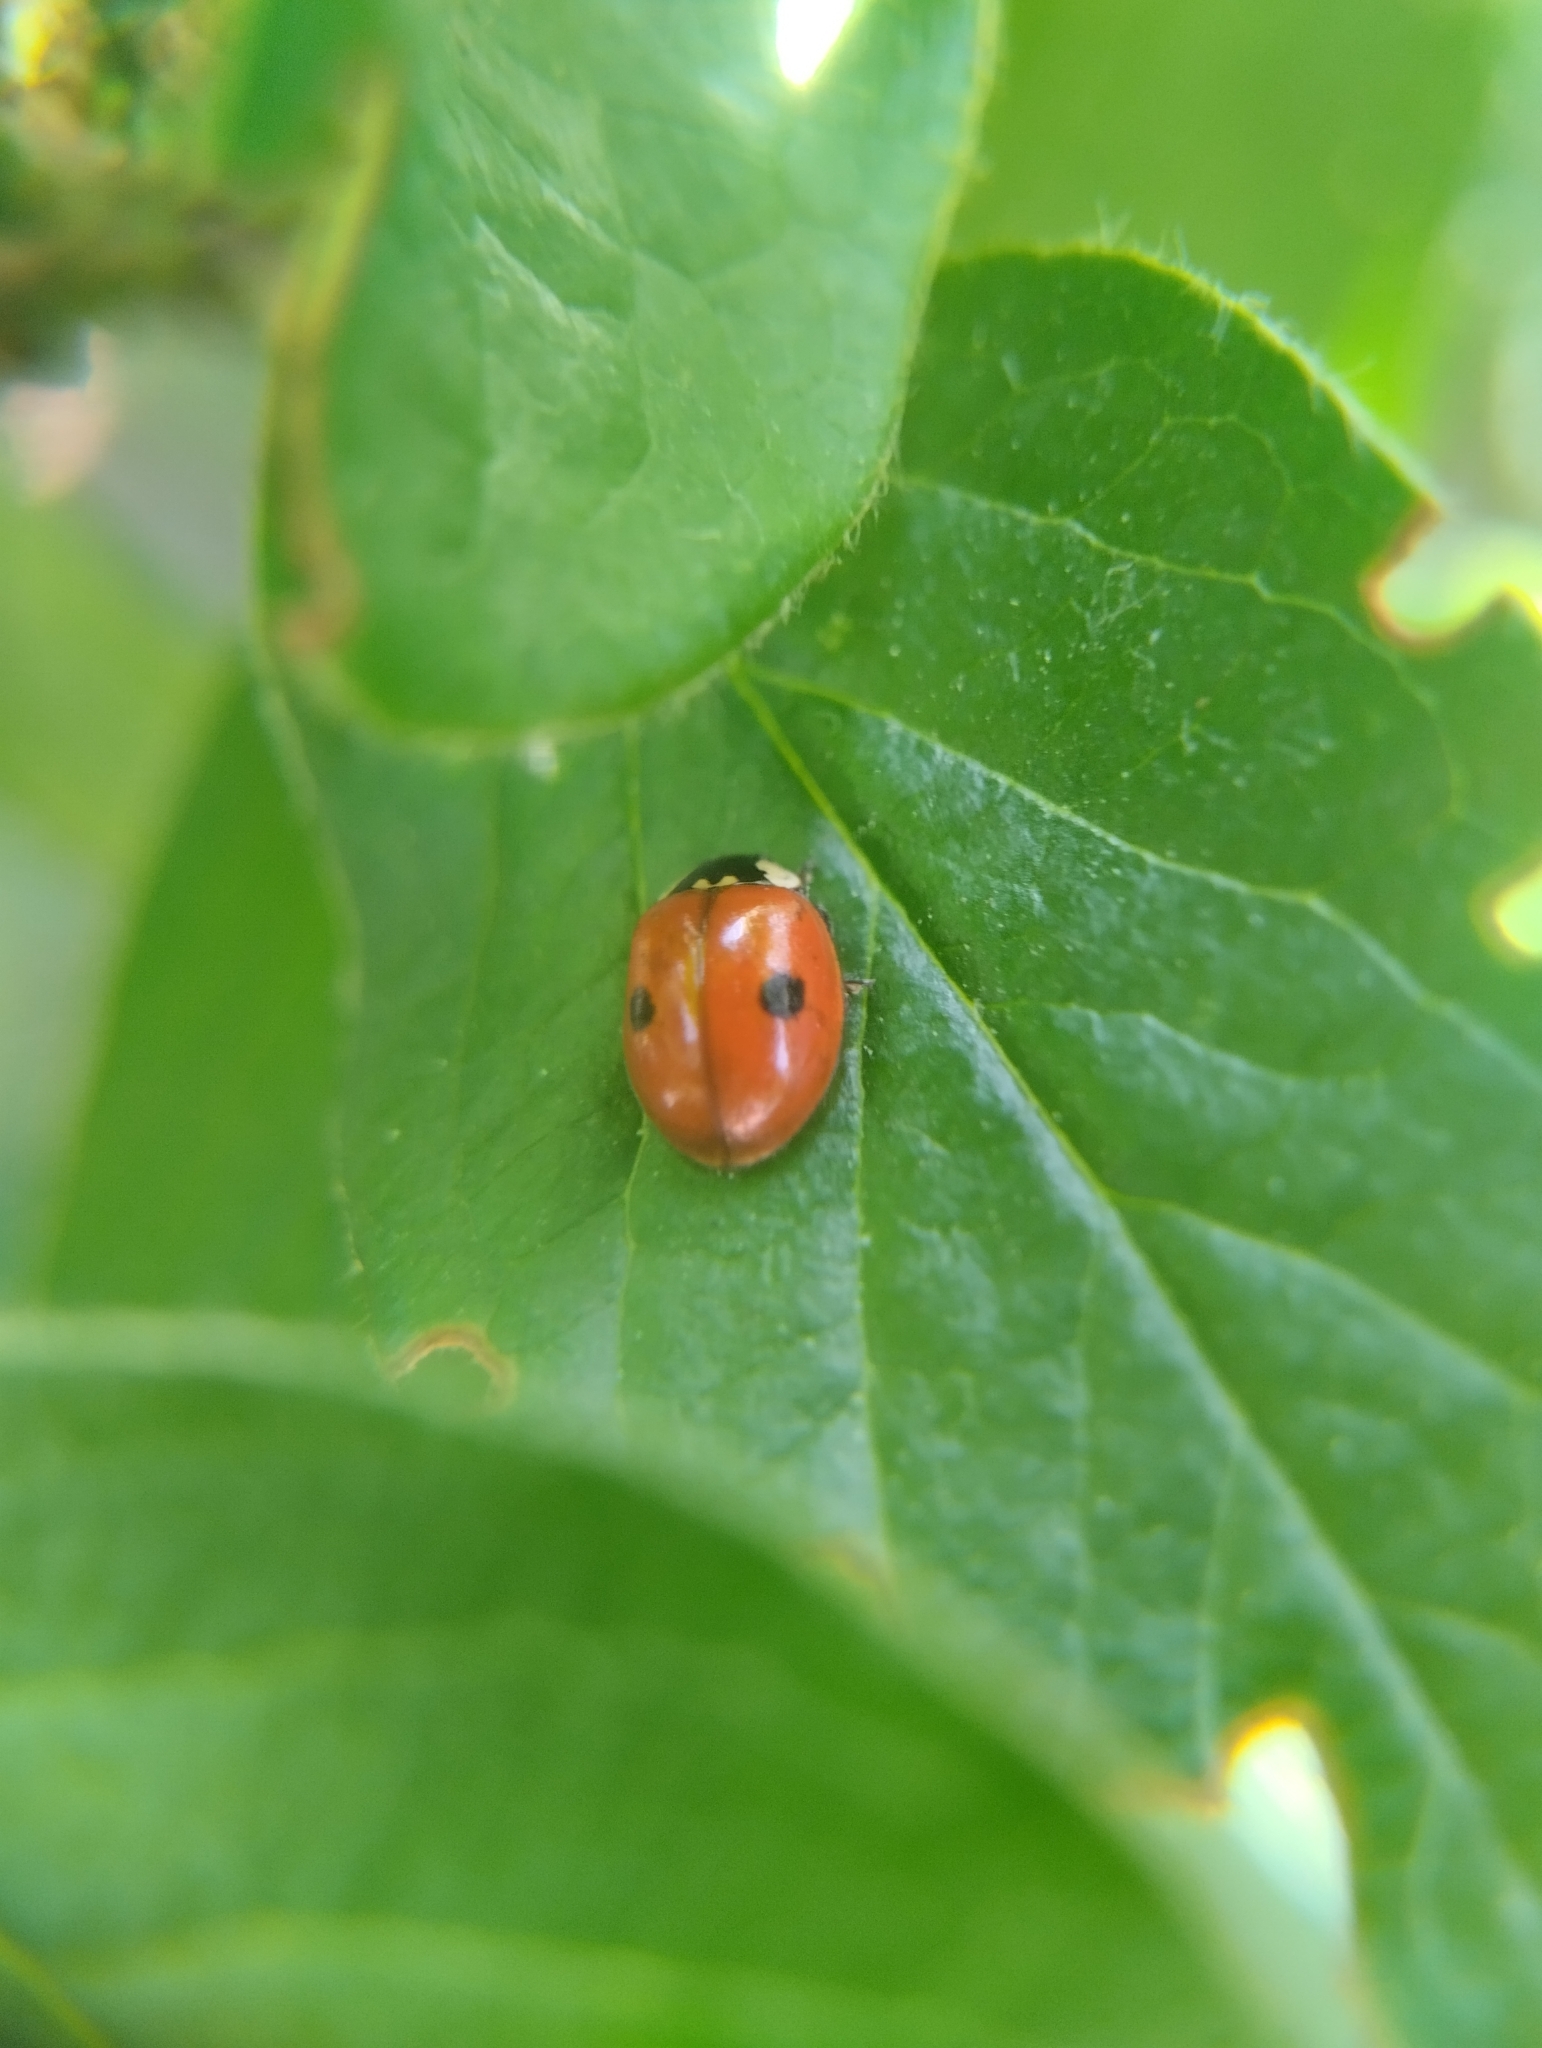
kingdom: Animalia
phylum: Arthropoda
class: Insecta
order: Coleoptera
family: Coccinellidae
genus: Adalia
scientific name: Adalia bipunctata
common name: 2-spot ladybird
